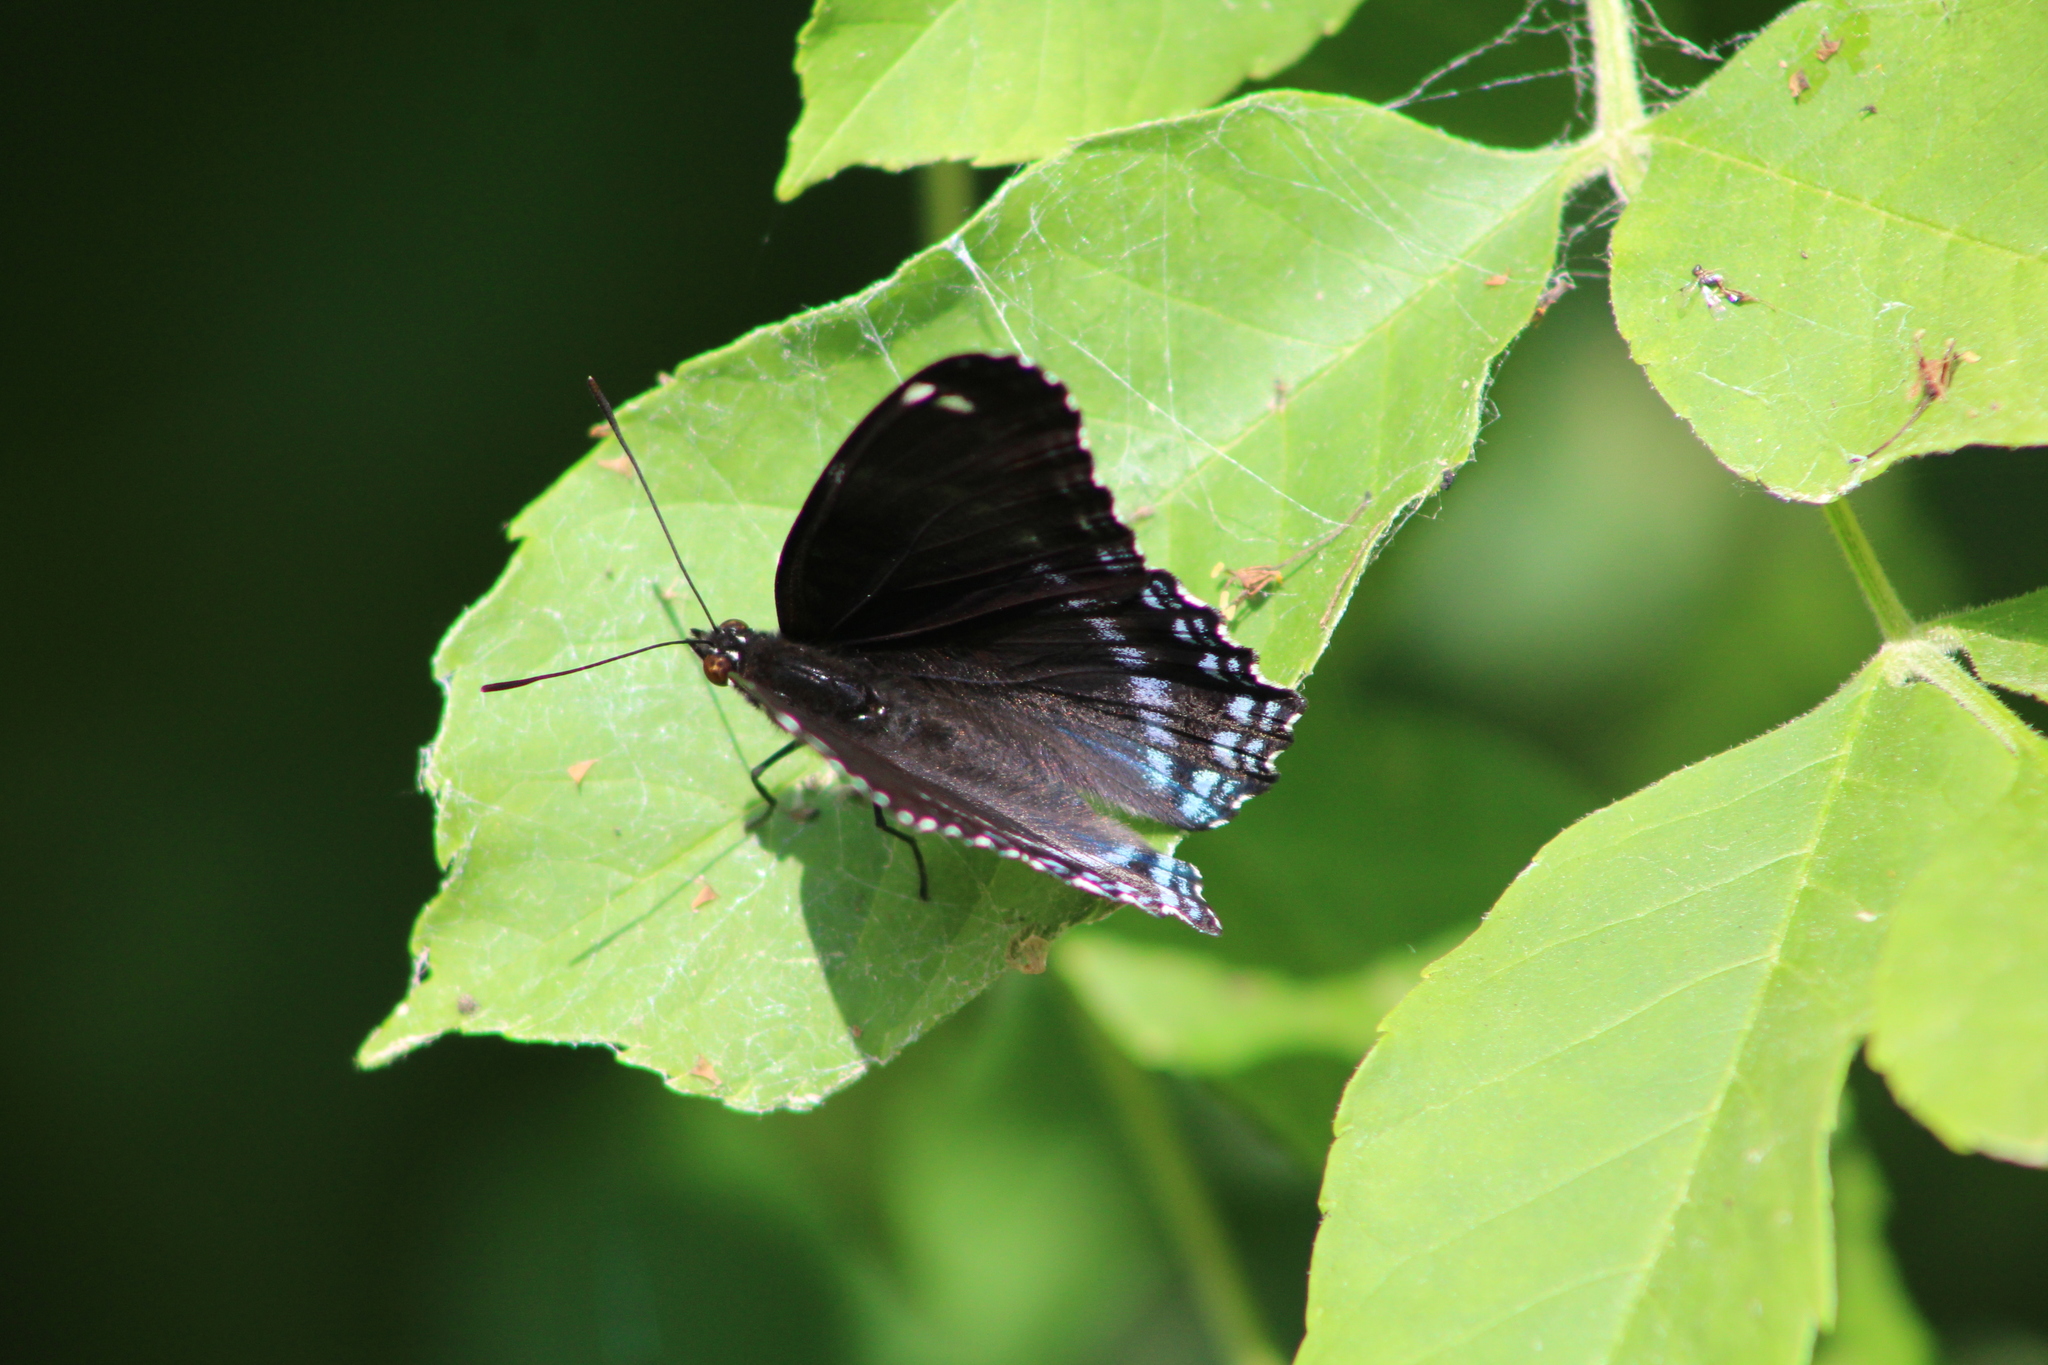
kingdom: Animalia
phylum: Arthropoda
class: Insecta
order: Lepidoptera
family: Nymphalidae
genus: Limenitis
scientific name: Limenitis astyanax
